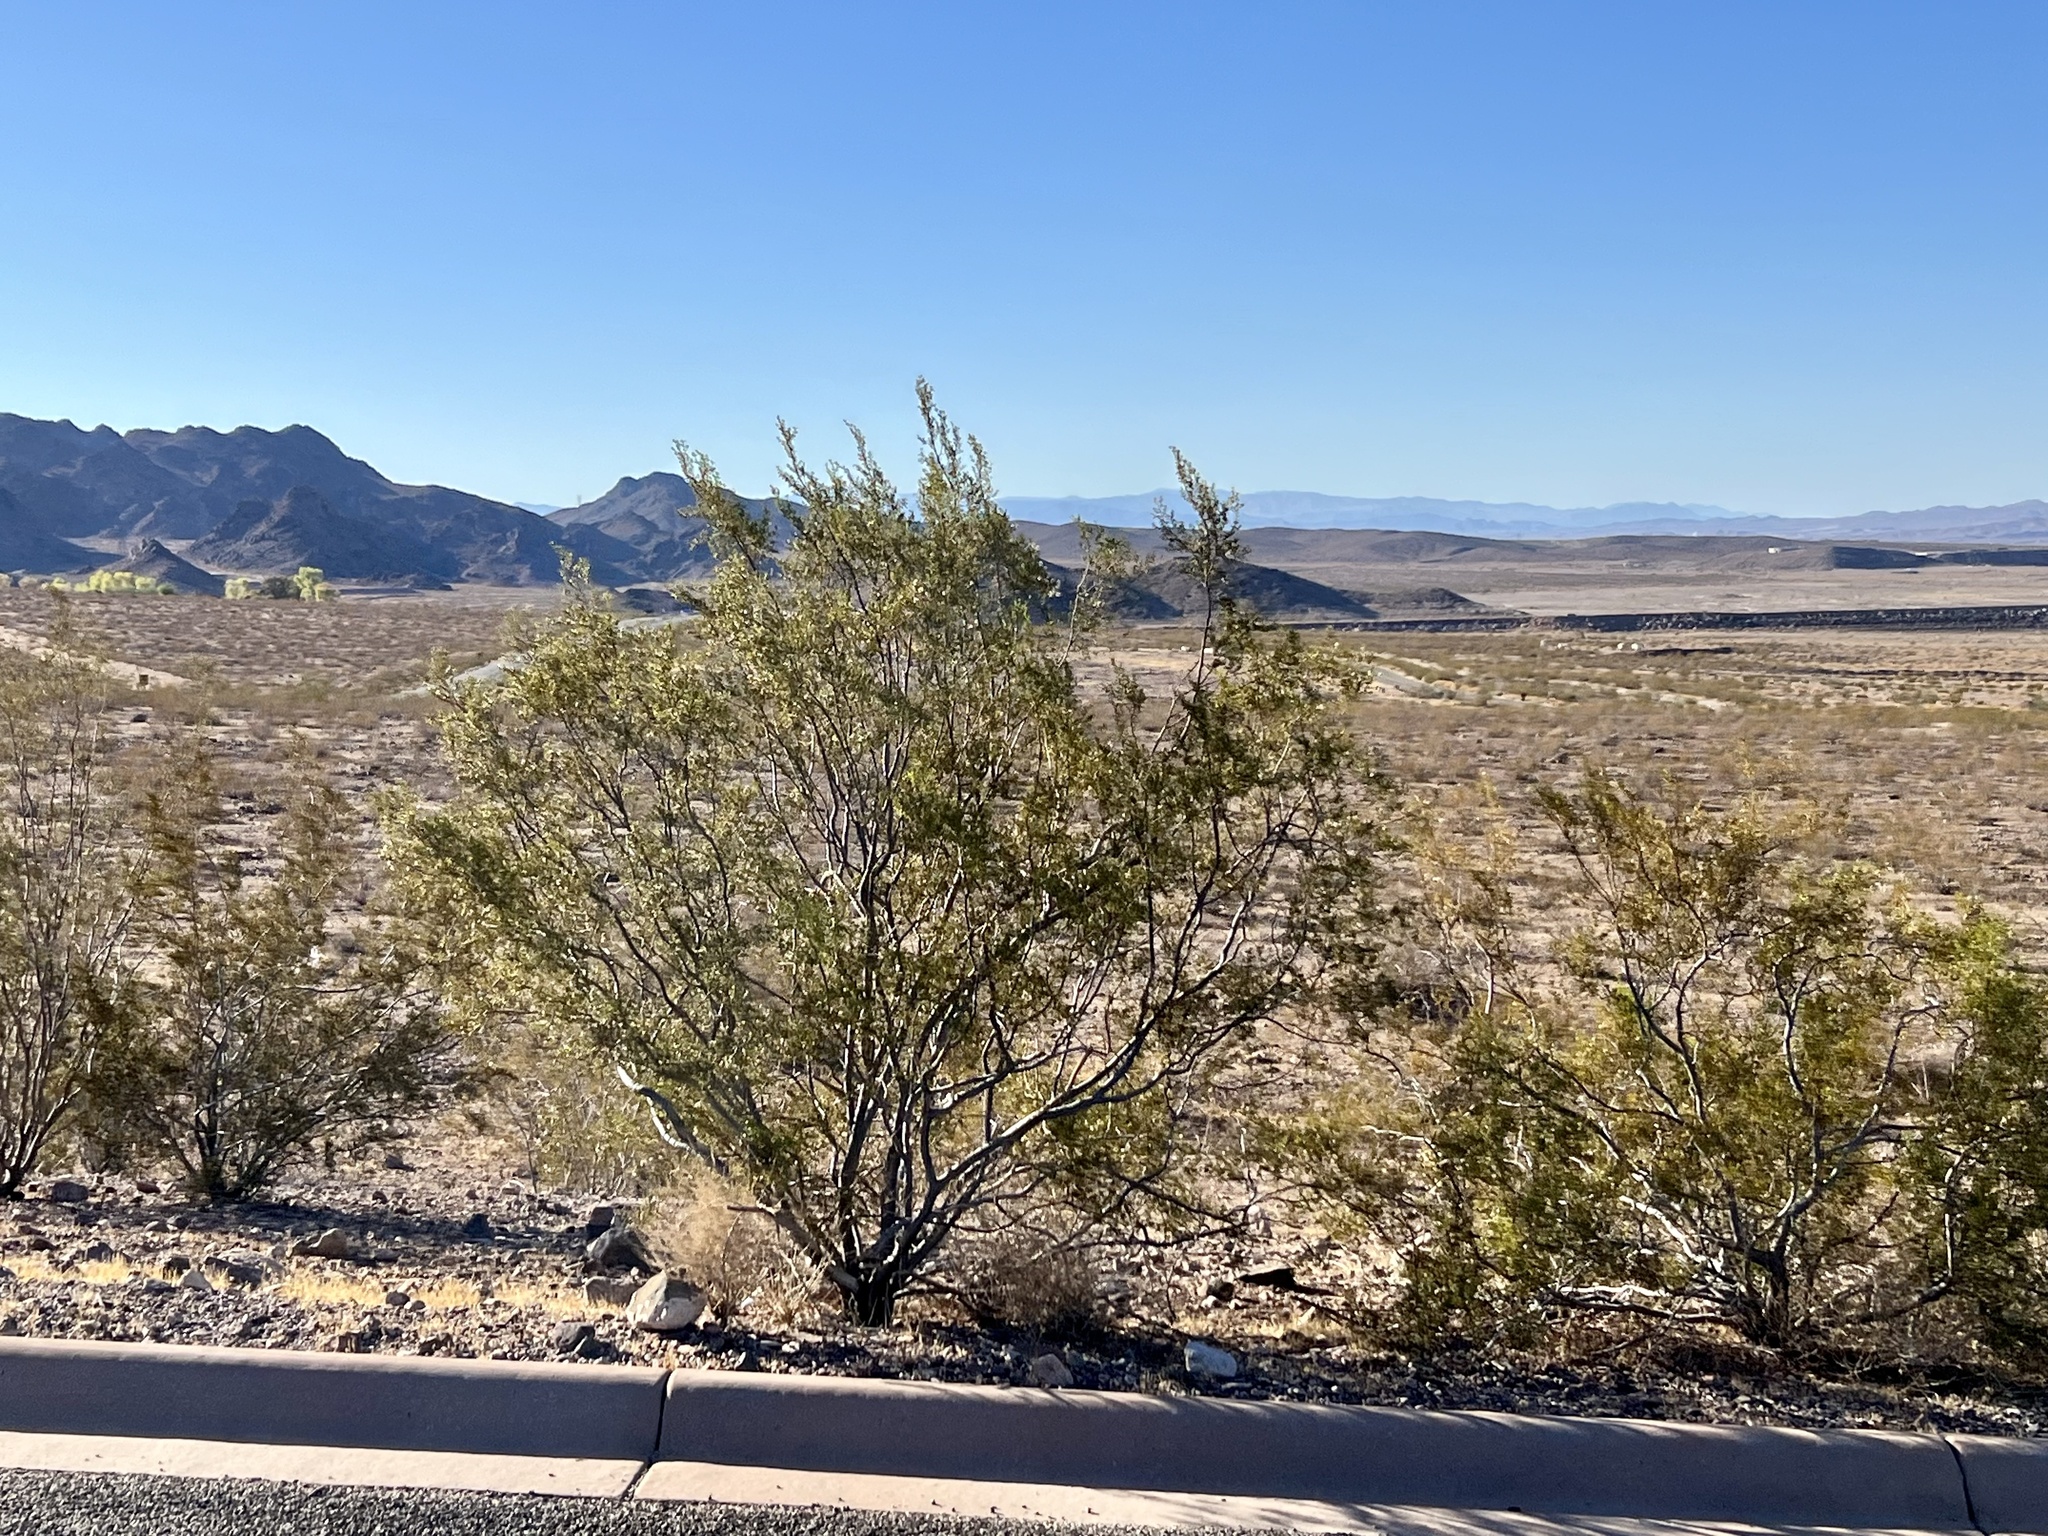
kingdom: Plantae
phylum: Tracheophyta
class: Magnoliopsida
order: Zygophyllales
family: Zygophyllaceae
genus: Larrea
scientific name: Larrea tridentata
